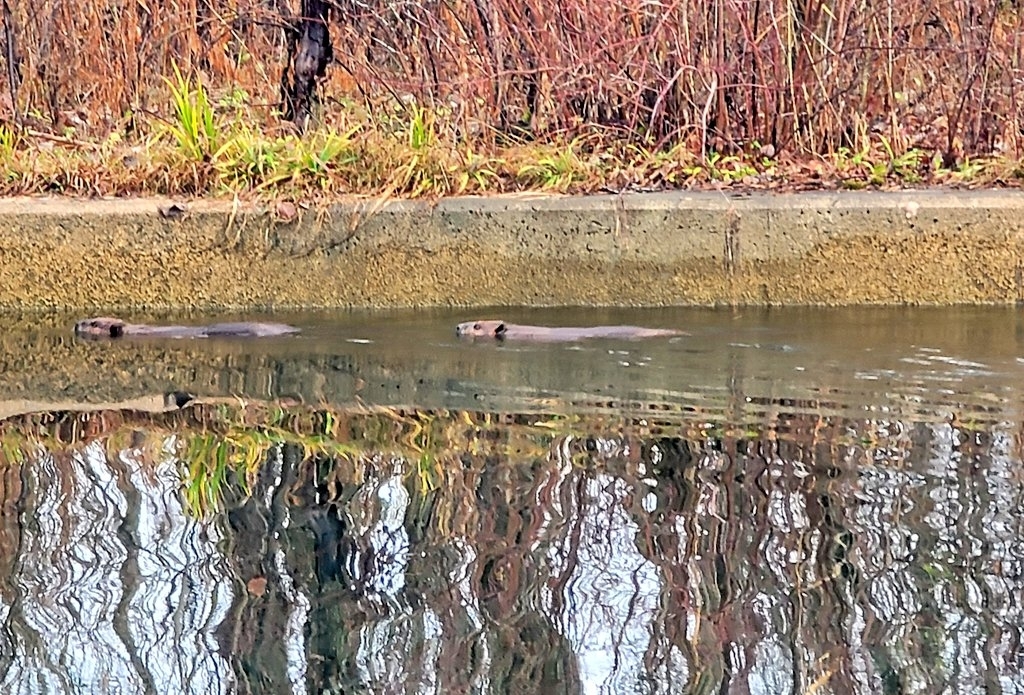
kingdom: Animalia
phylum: Chordata
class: Mammalia
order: Rodentia
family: Castoridae
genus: Castor
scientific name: Castor canadensis
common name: American beaver
